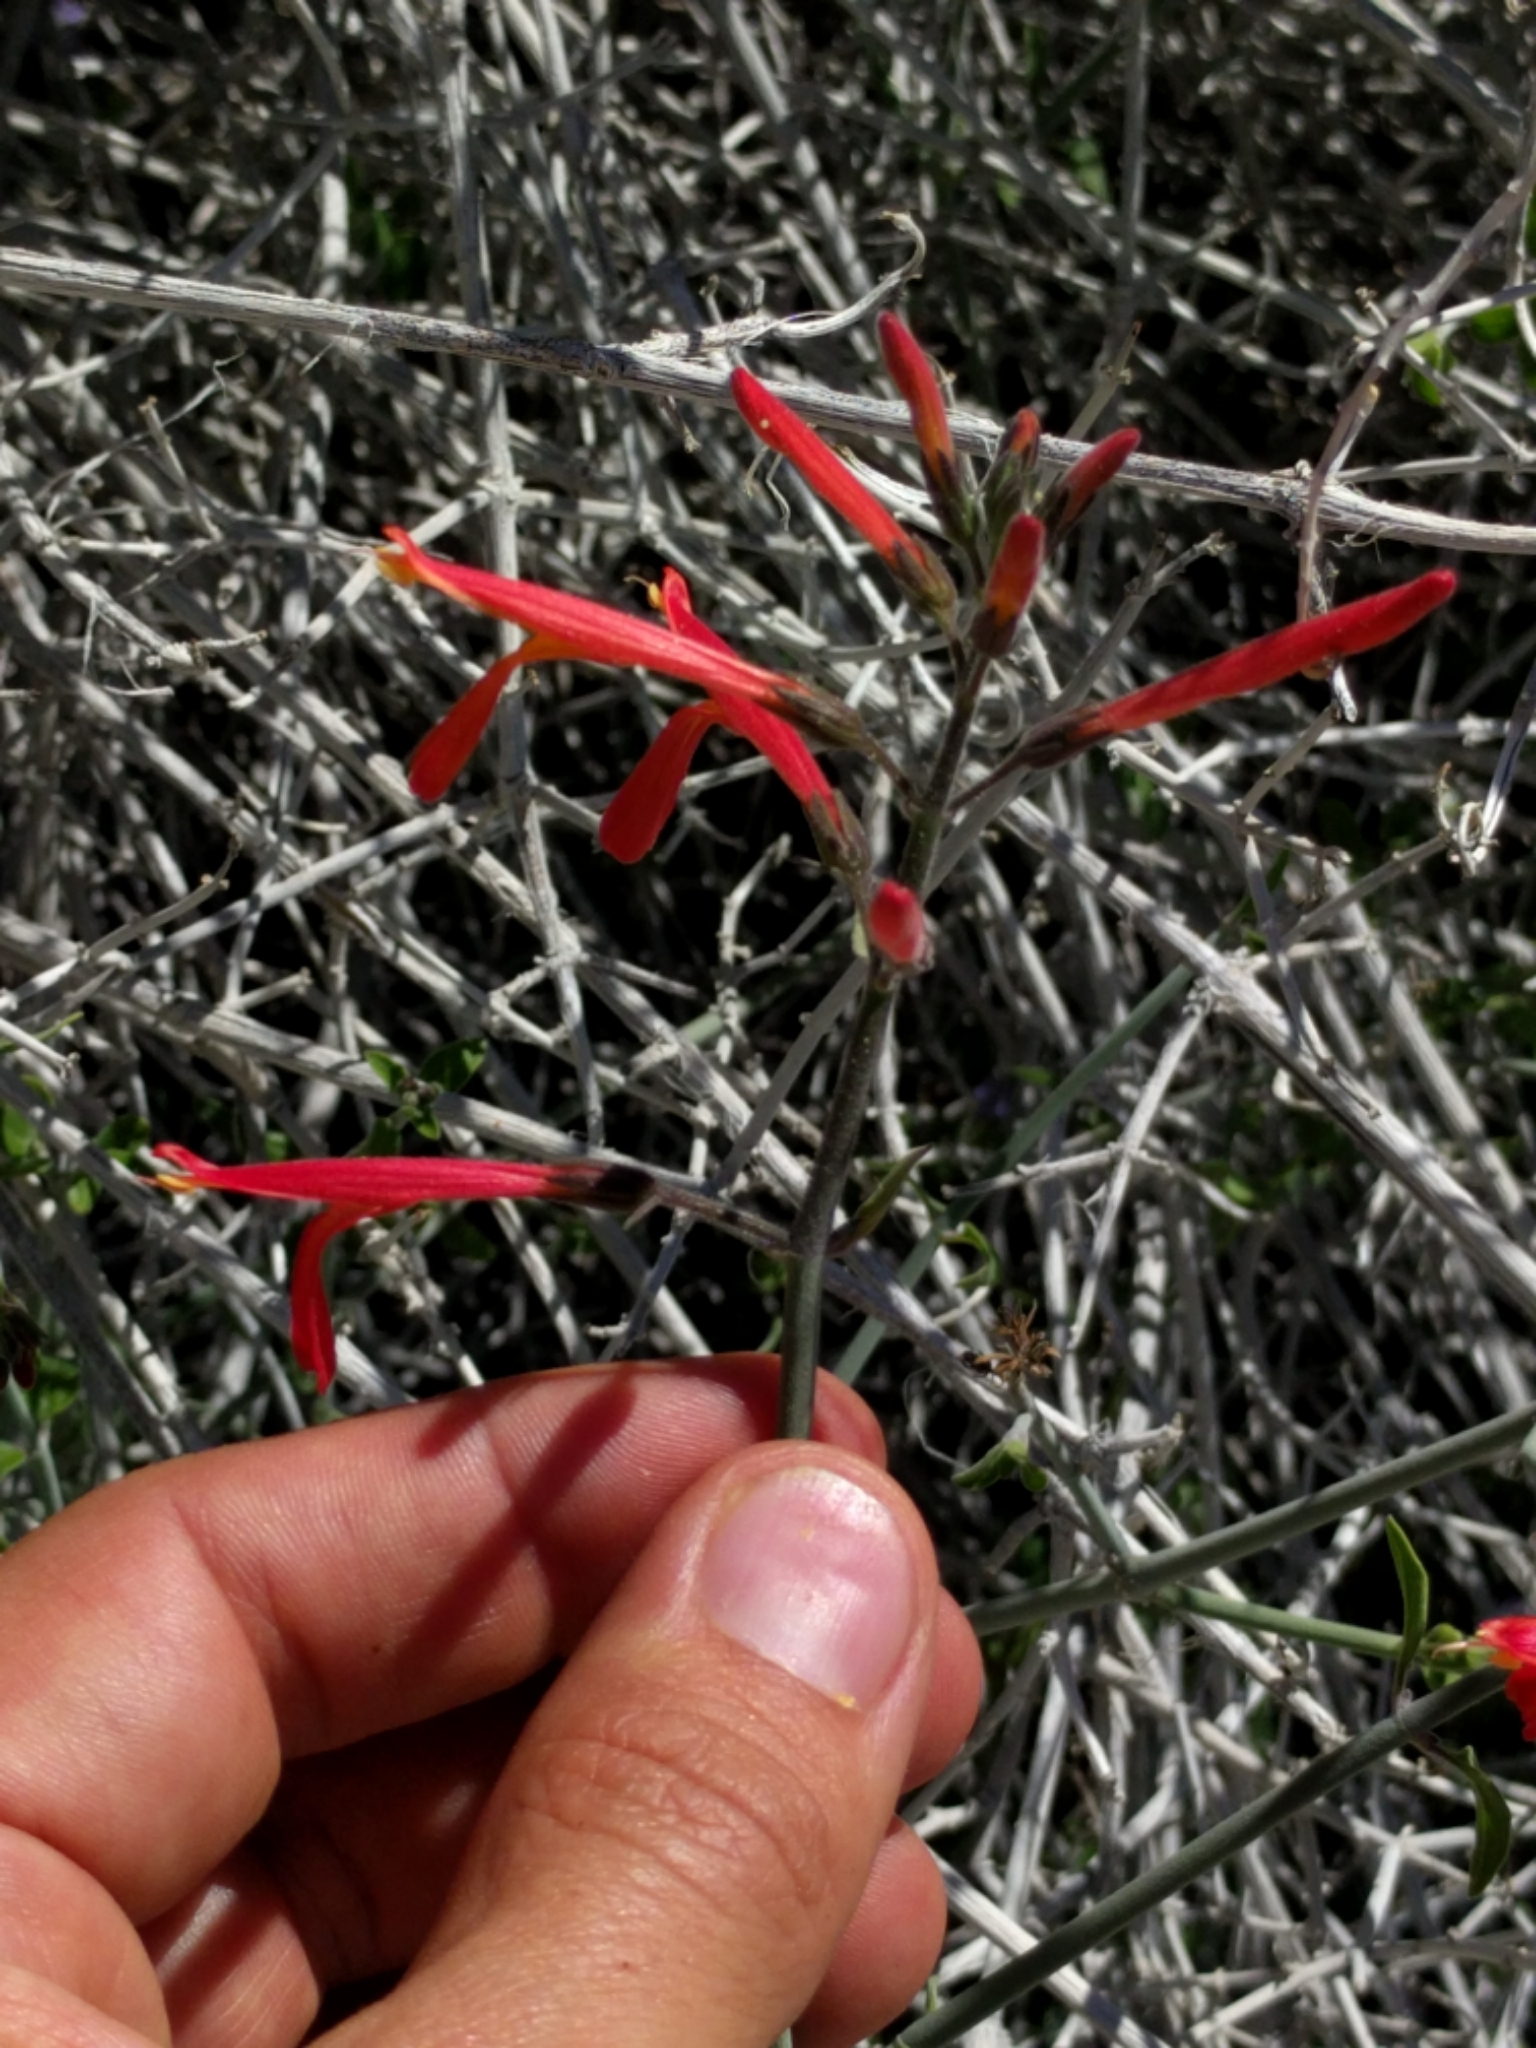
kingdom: Plantae
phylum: Tracheophyta
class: Magnoliopsida
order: Lamiales
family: Acanthaceae
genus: Justicia
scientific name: Justicia californica
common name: Chuparosa-honeysuckle
